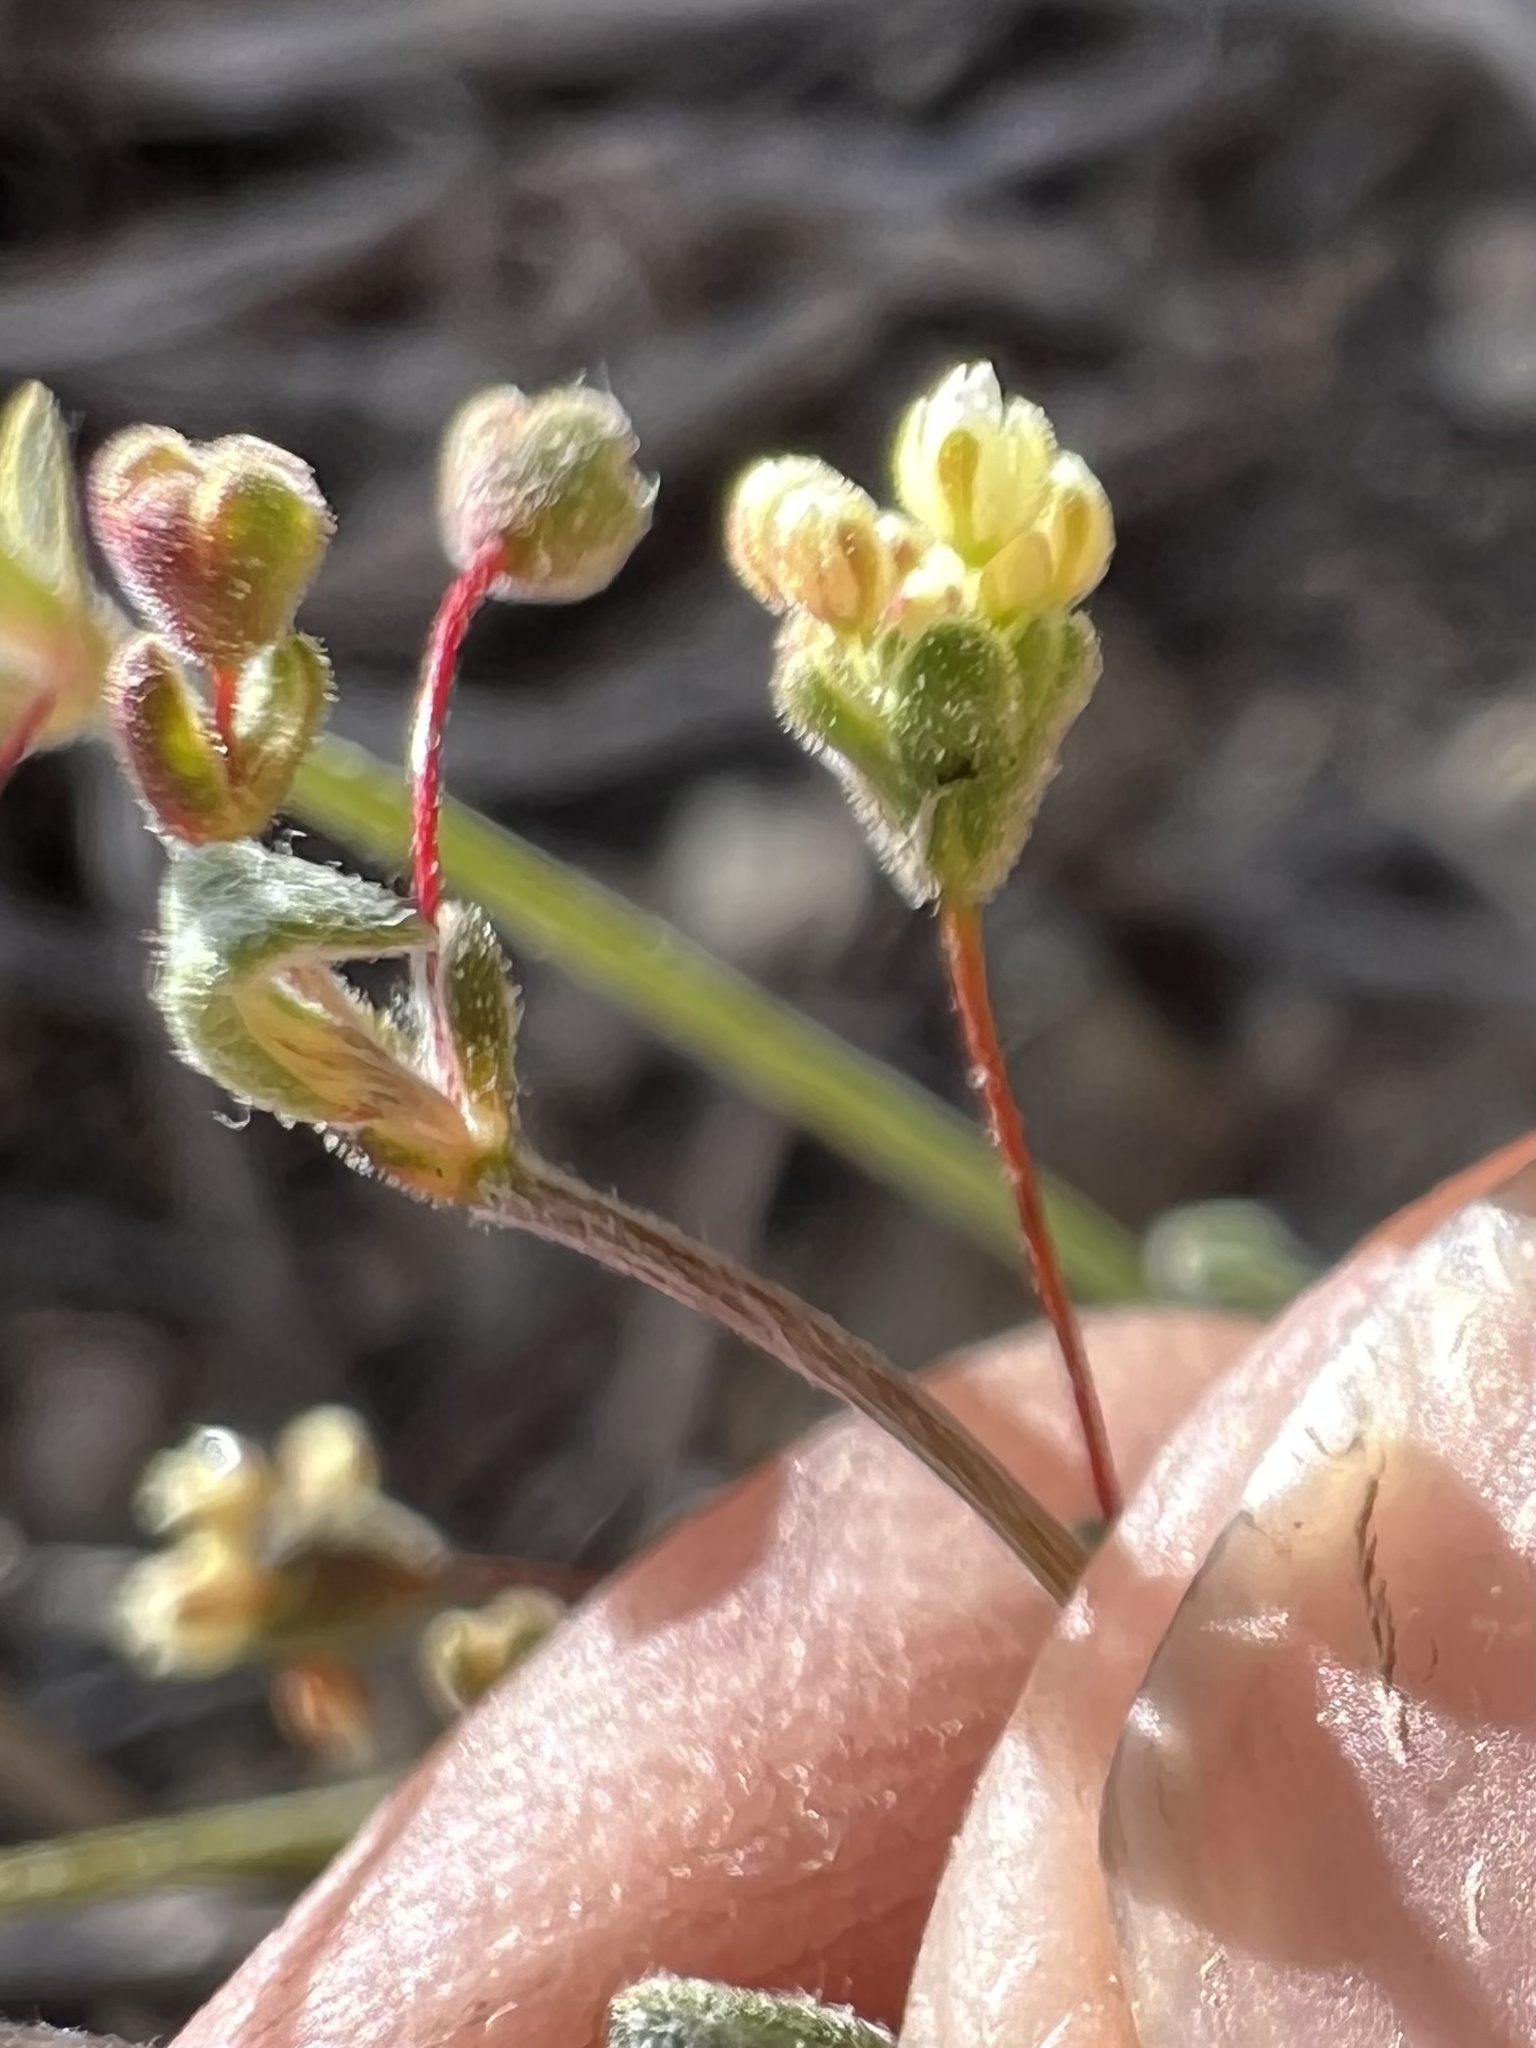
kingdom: Plantae
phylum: Tracheophyta
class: Magnoliopsida
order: Caryophyllales
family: Polygonaceae
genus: Eriogonum
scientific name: Eriogonum maculatum
